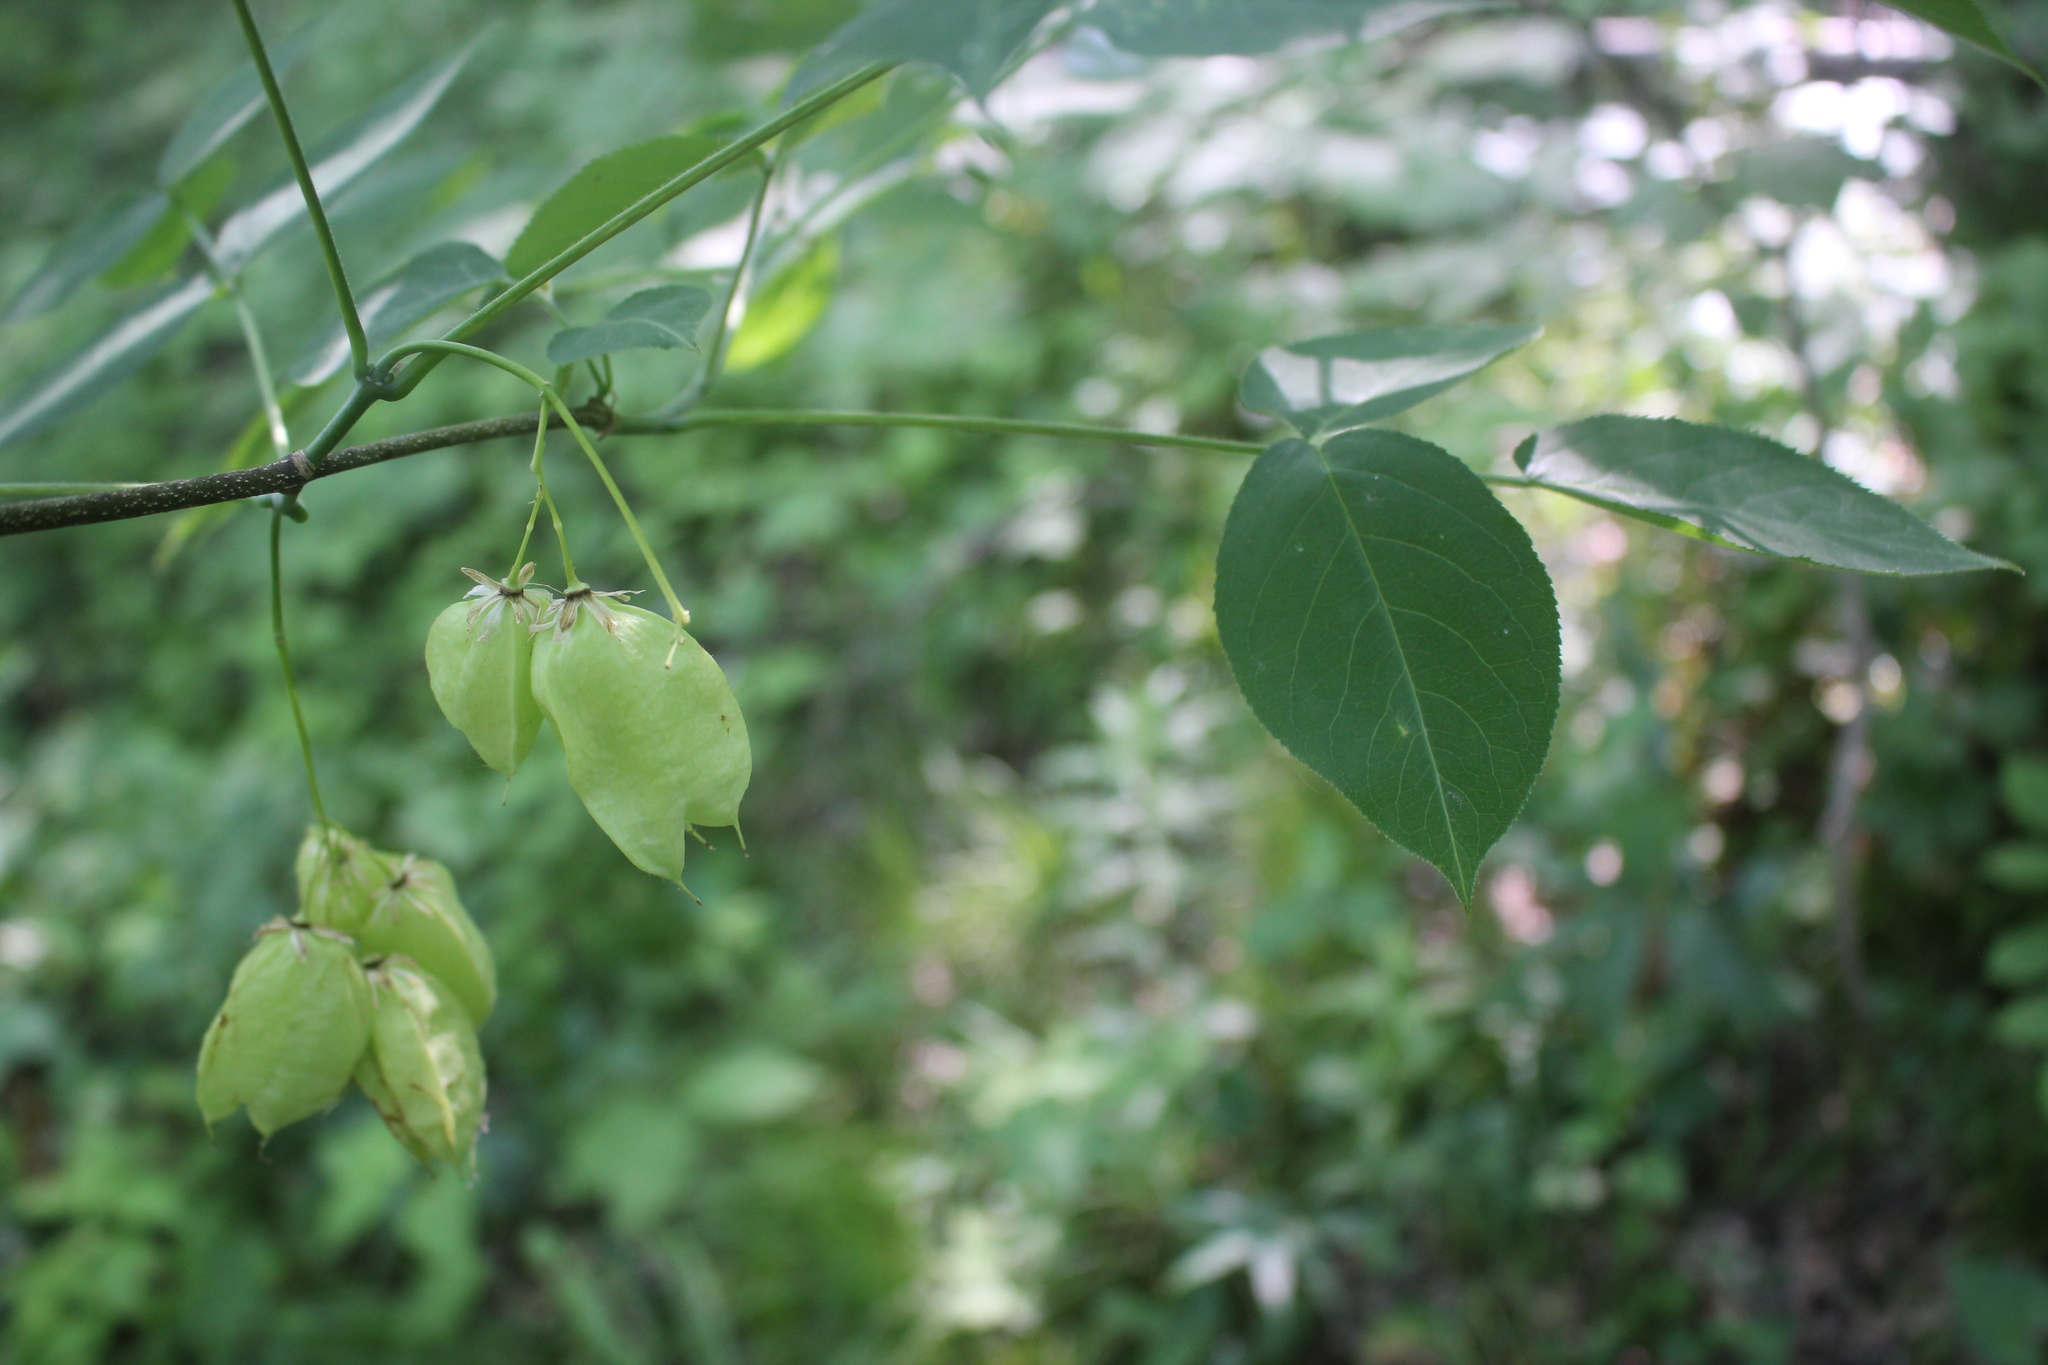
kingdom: Plantae
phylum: Tracheophyta
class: Magnoliopsida
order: Crossosomatales
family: Staphyleaceae
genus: Staphylea
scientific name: Staphylea trifolia
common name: American bladdernut
